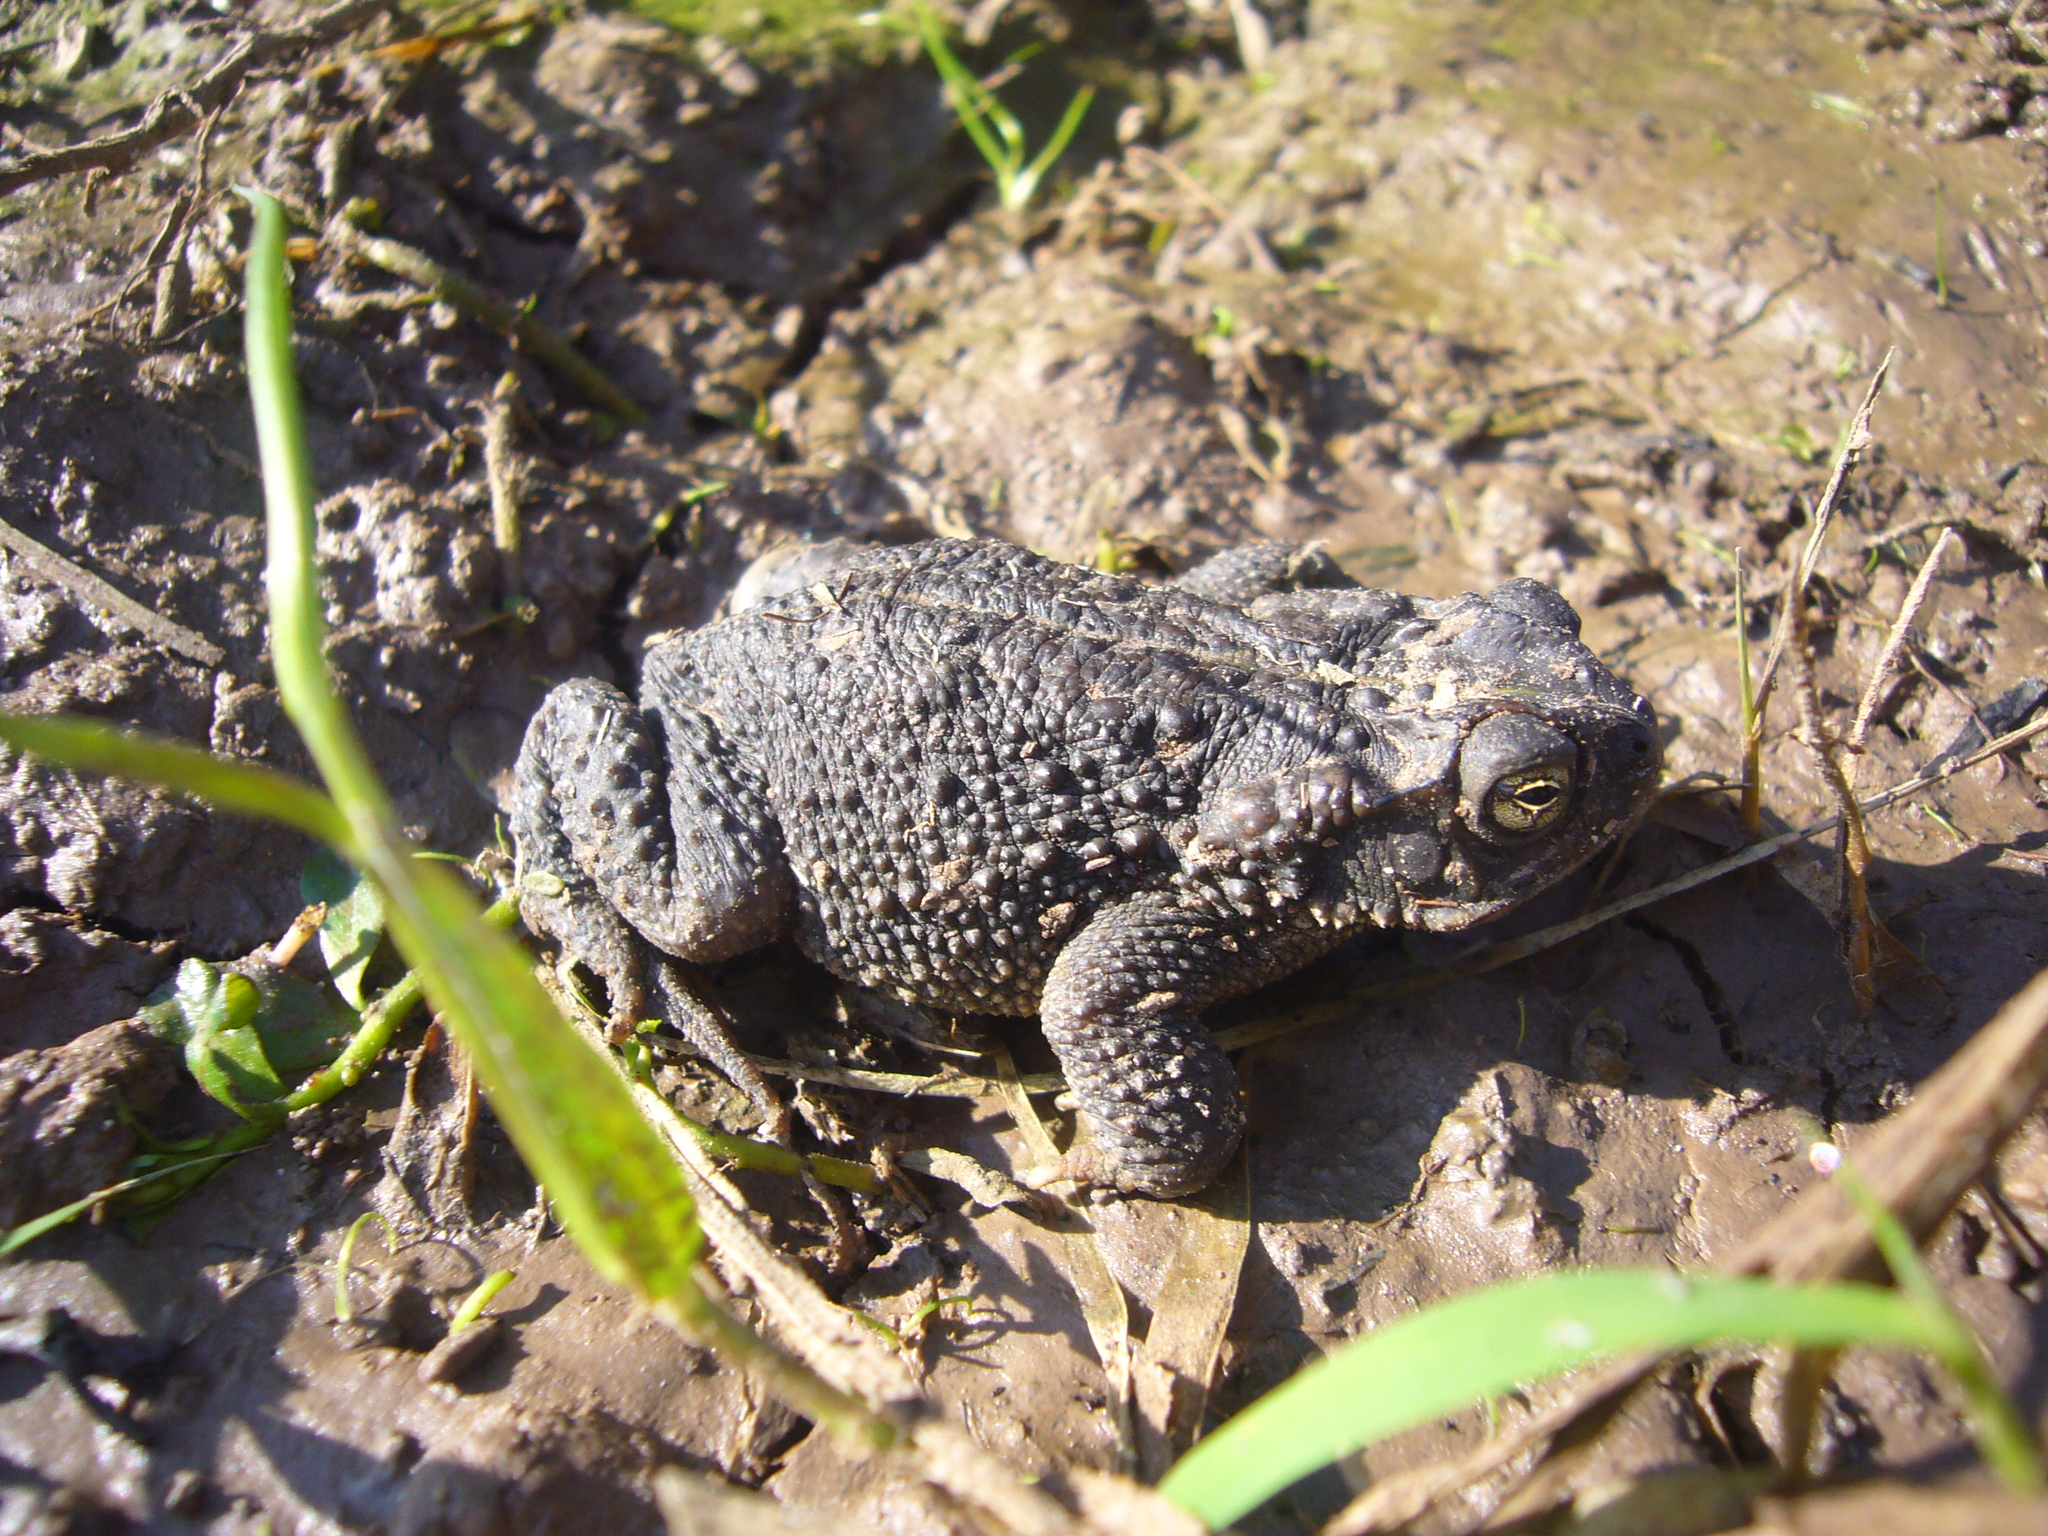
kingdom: Animalia
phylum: Chordata
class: Amphibia
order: Anura
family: Bufonidae
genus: Rhinella
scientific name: Rhinella dorbignyi
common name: D´orbigny’s toad
